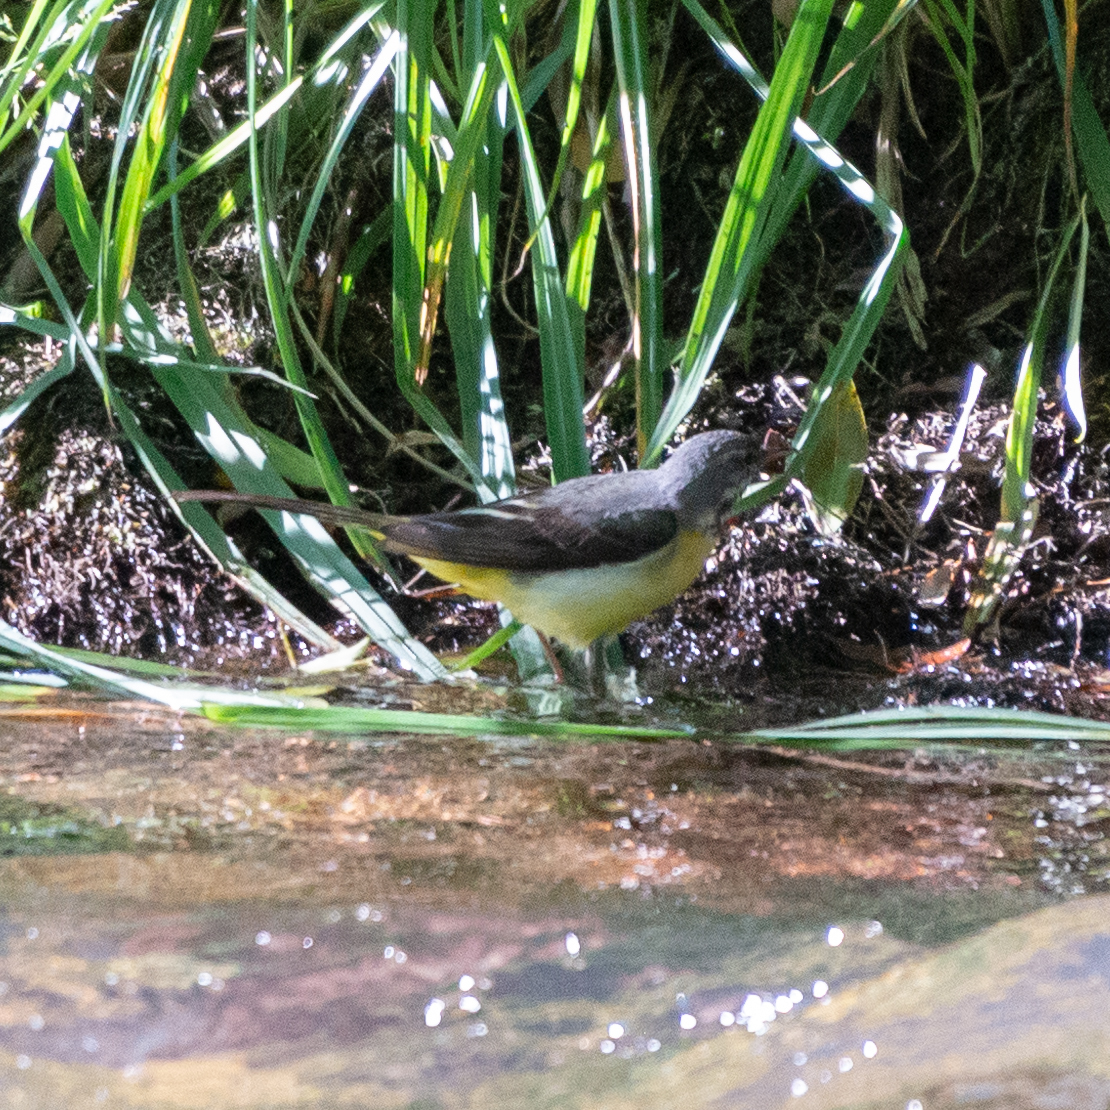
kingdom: Animalia
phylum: Chordata
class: Aves
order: Passeriformes
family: Motacillidae
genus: Motacilla
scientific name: Motacilla cinerea
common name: Grey wagtail
